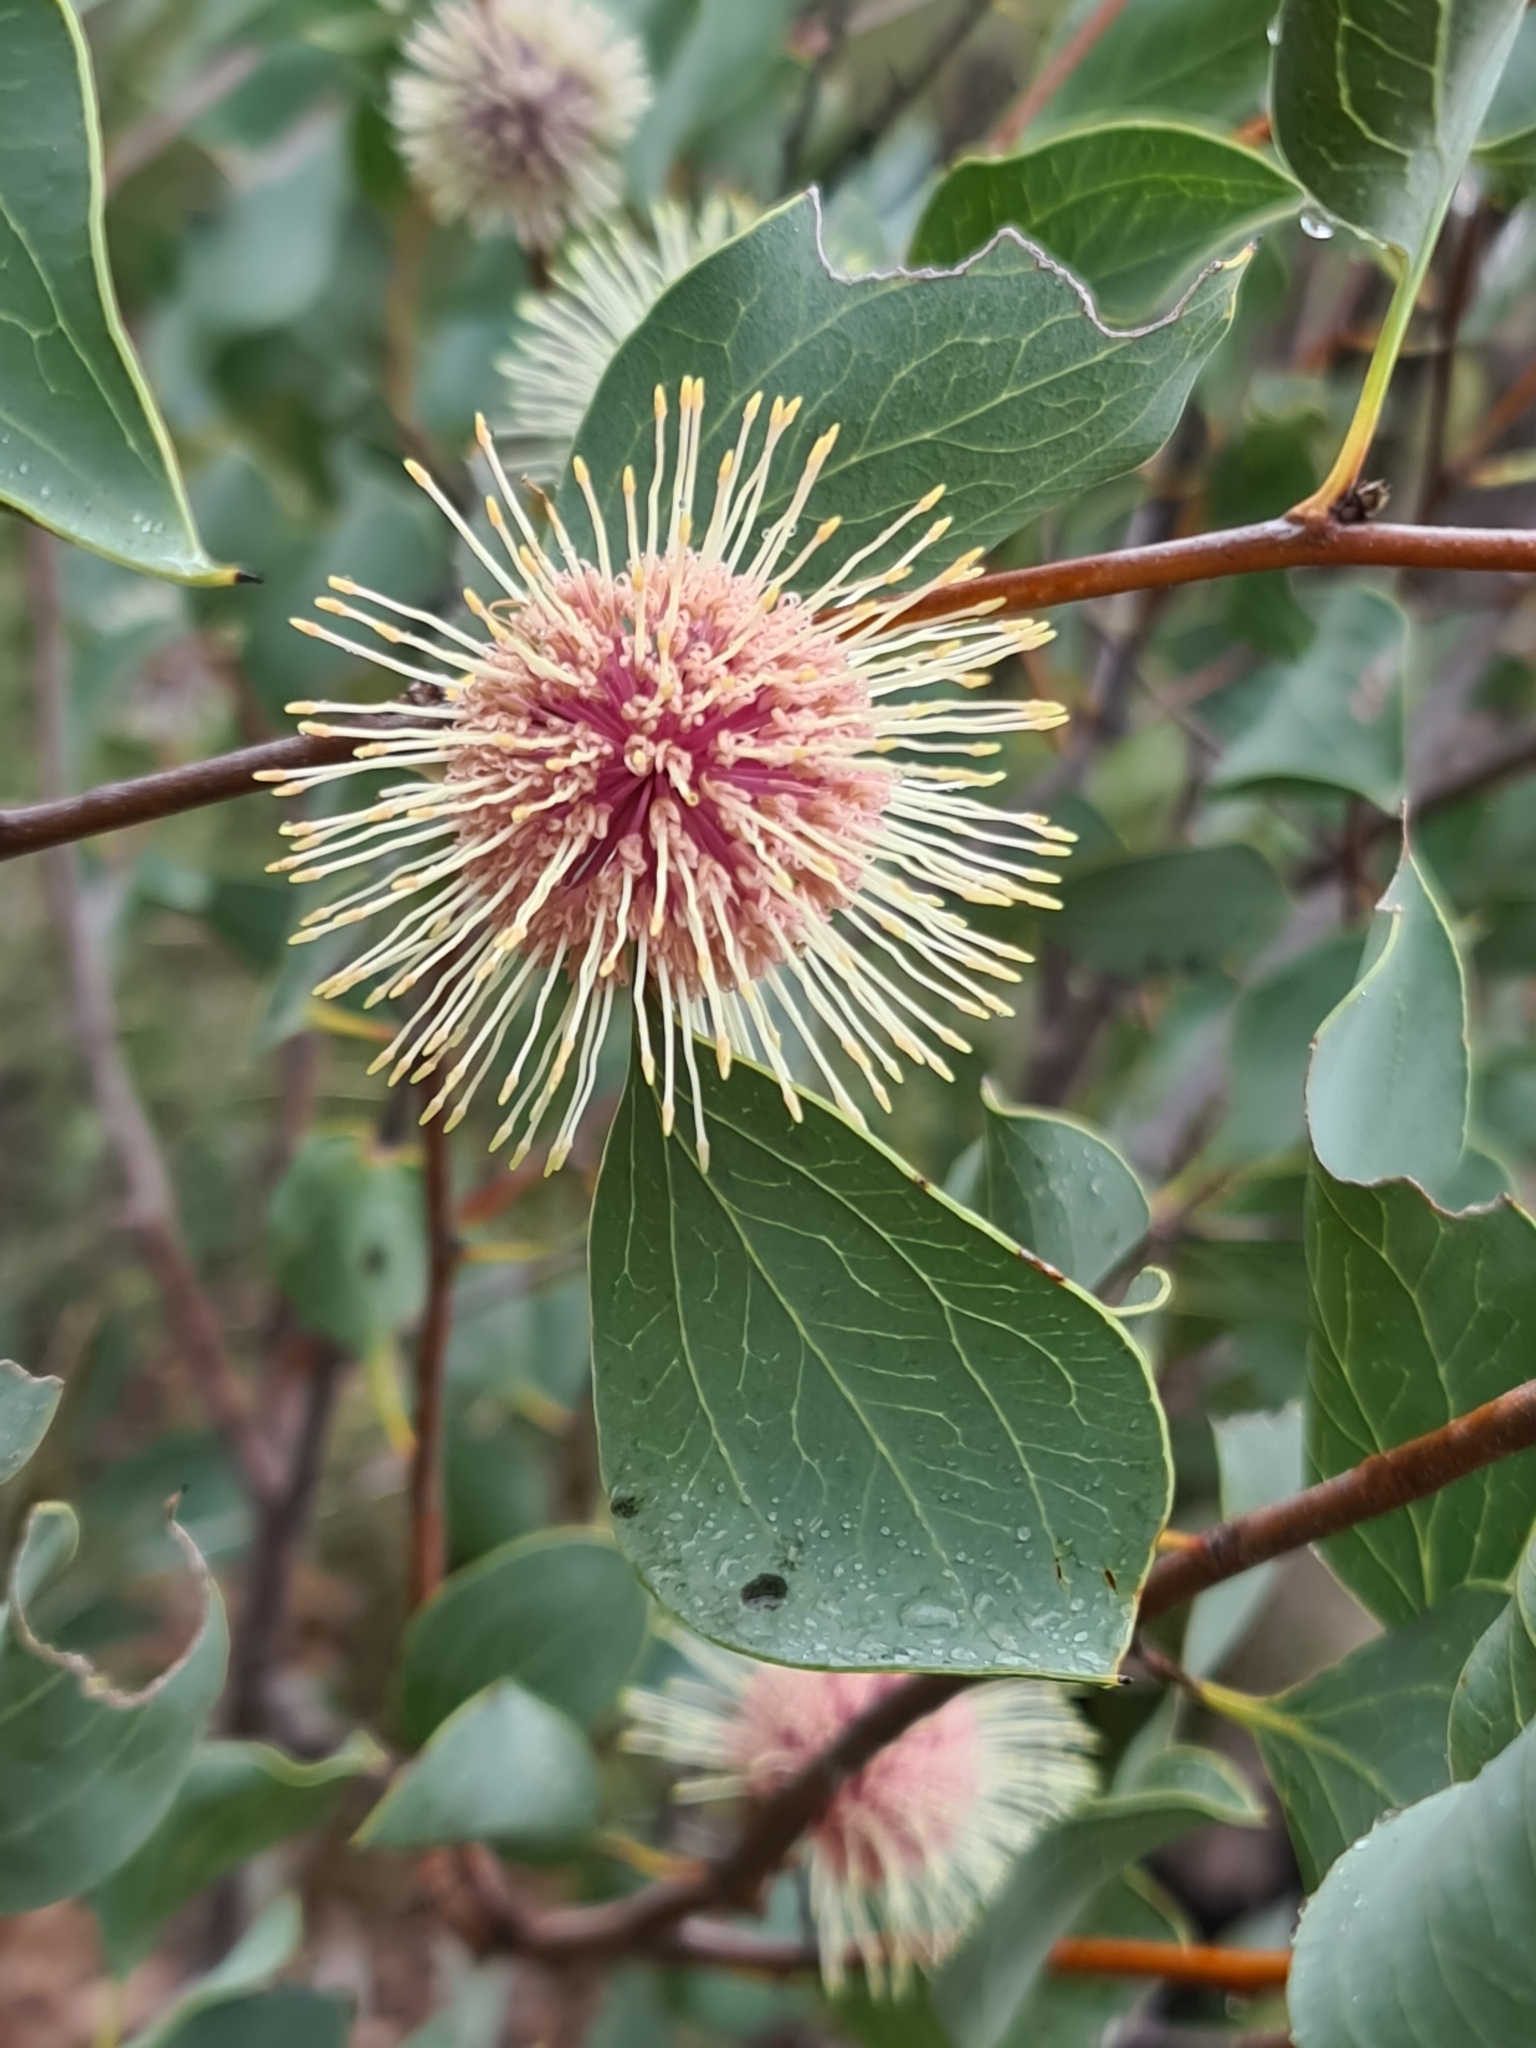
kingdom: Plantae
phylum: Tracheophyta
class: Magnoliopsida
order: Proteales
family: Proteaceae
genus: Hakea
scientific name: Hakea petiolaris
